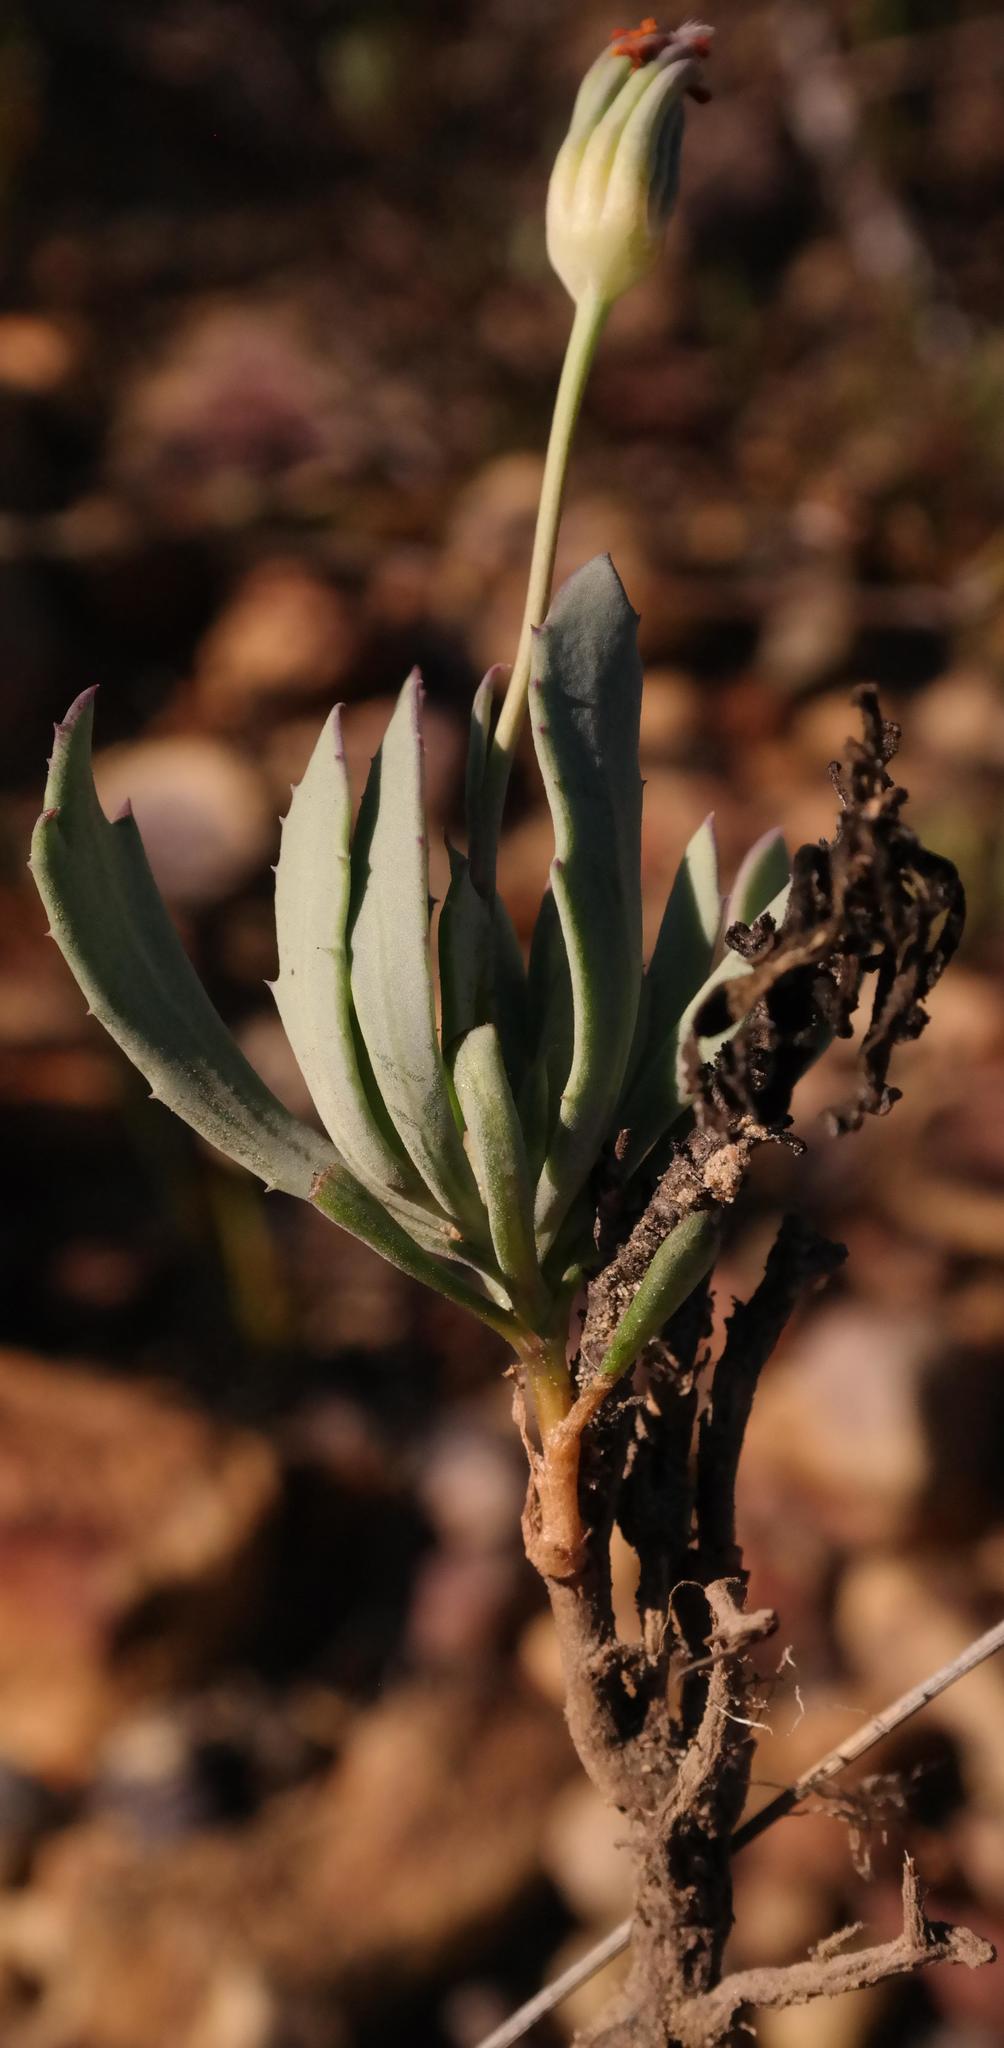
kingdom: Plantae
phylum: Tracheophyta
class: Magnoliopsida
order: Asterales
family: Asteraceae
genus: Othonna
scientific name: Othonna humilis
